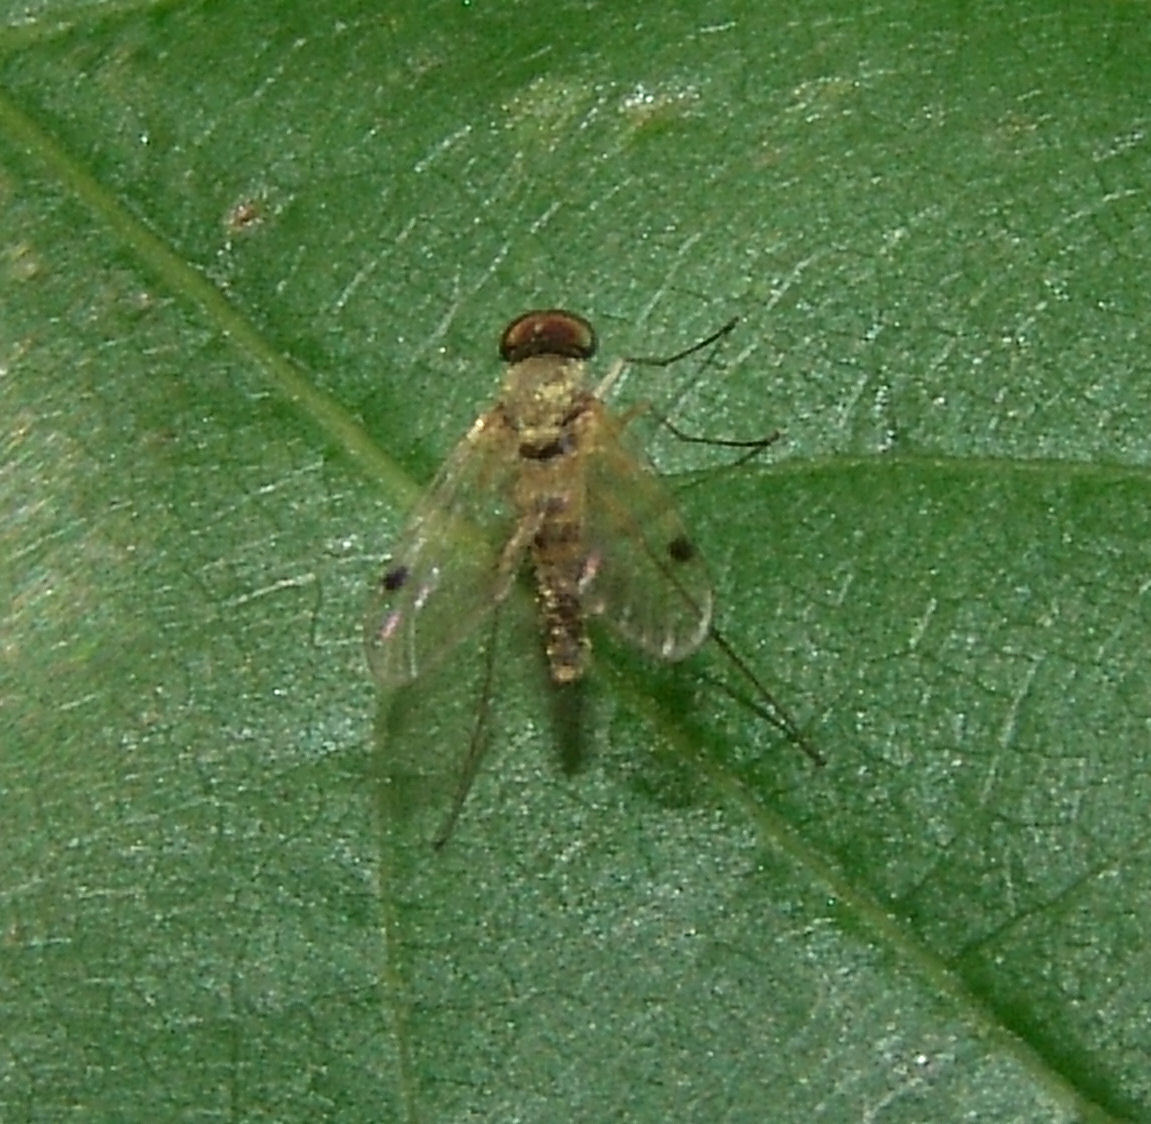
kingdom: Animalia
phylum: Arthropoda
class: Insecta
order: Diptera
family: Rhagionidae
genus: Chrysopilus
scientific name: Chrysopilus modestus
